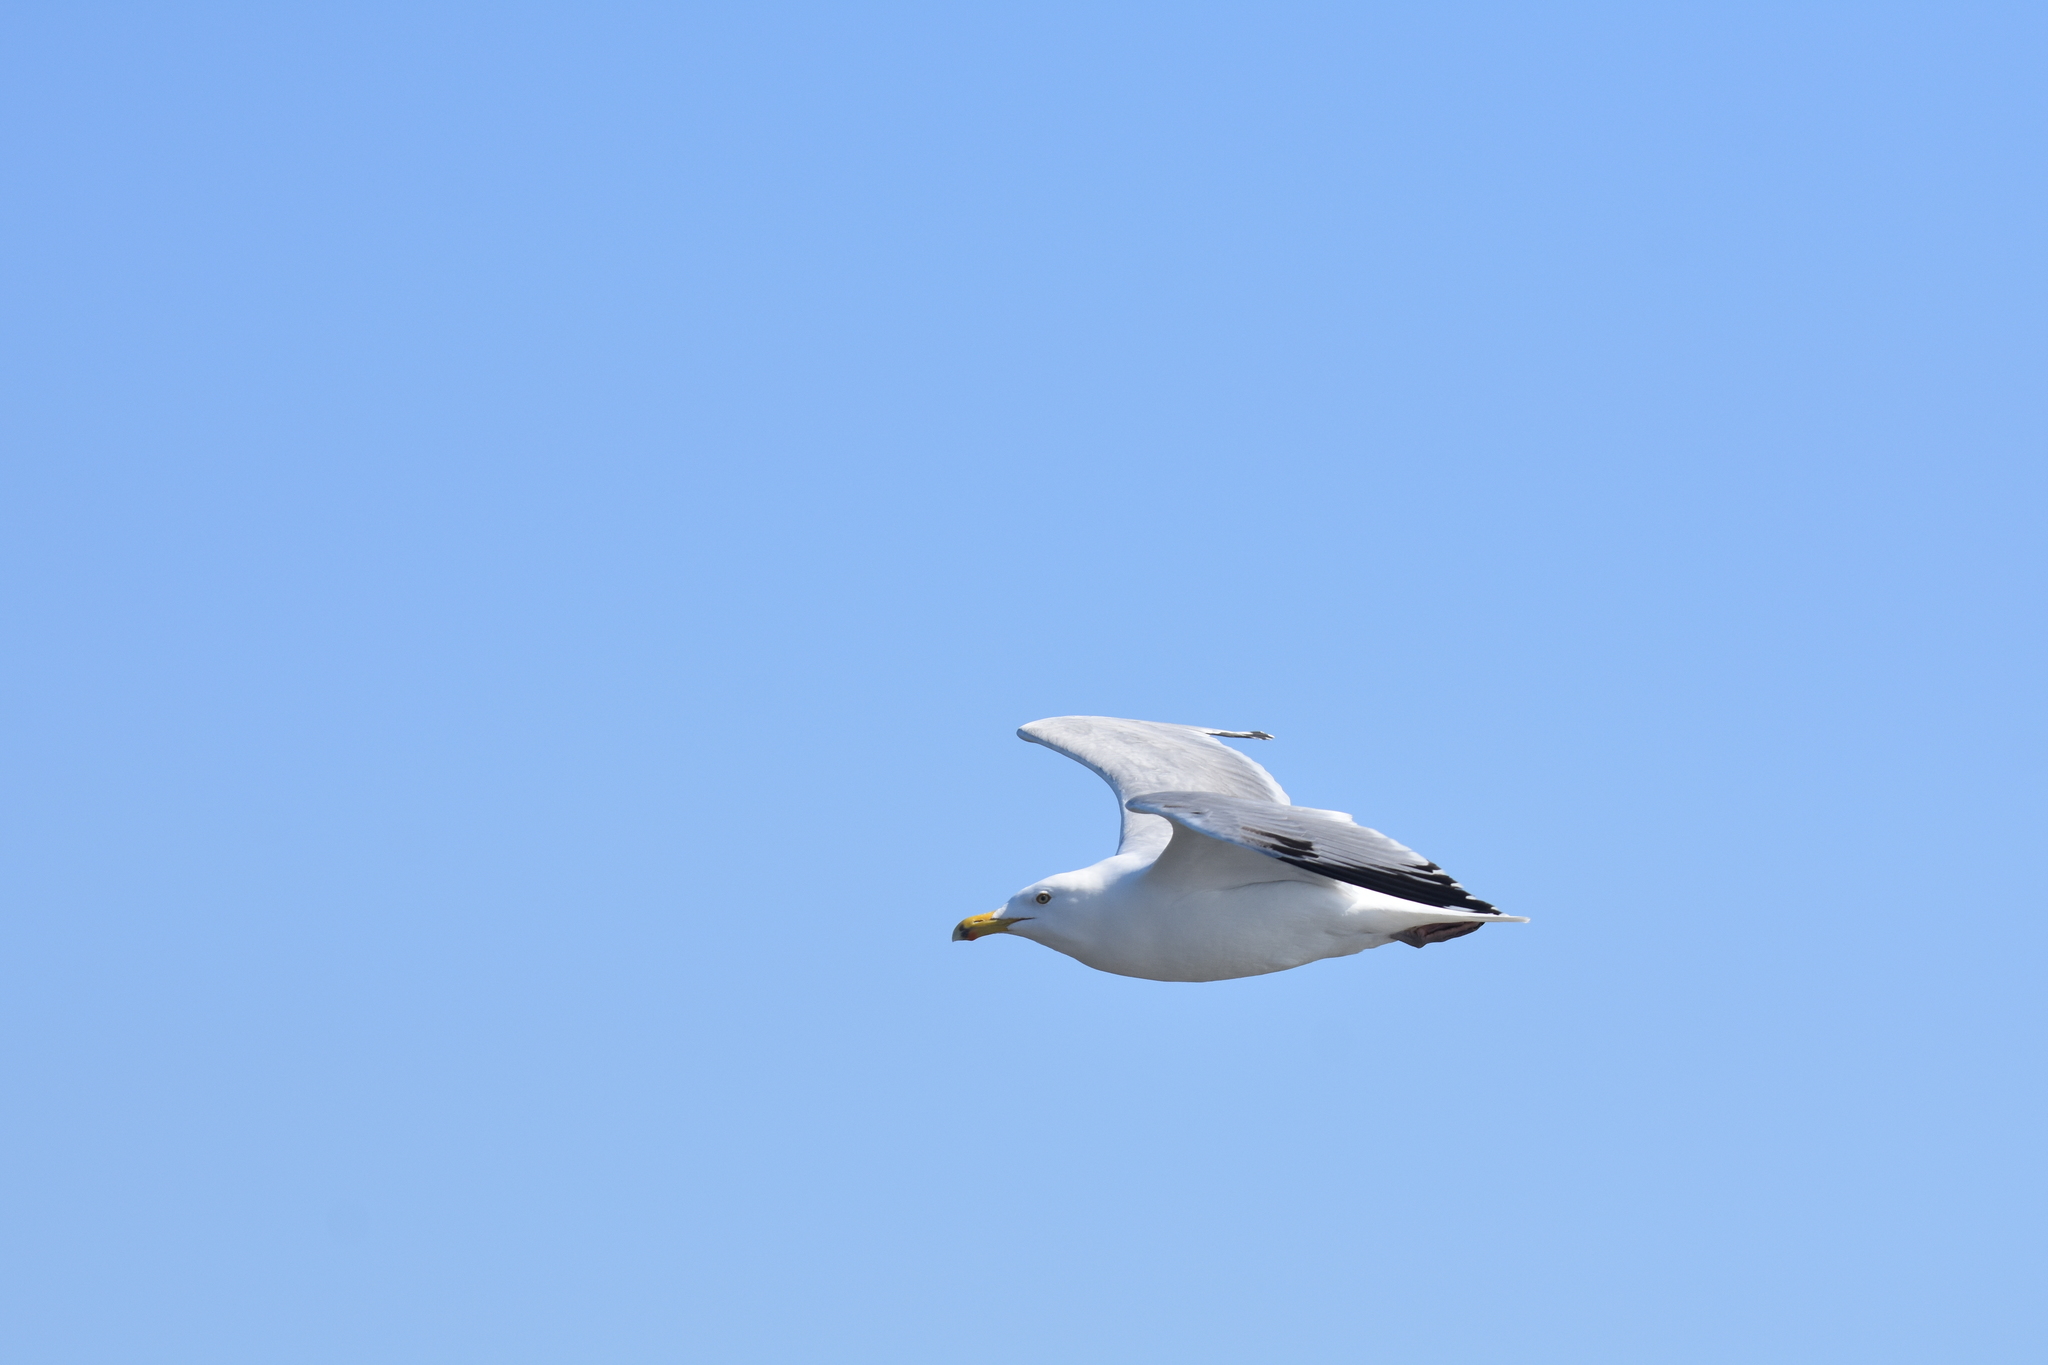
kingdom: Animalia
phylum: Chordata
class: Aves
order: Charadriiformes
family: Laridae
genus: Larus
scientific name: Larus argentatus
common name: Herring gull
